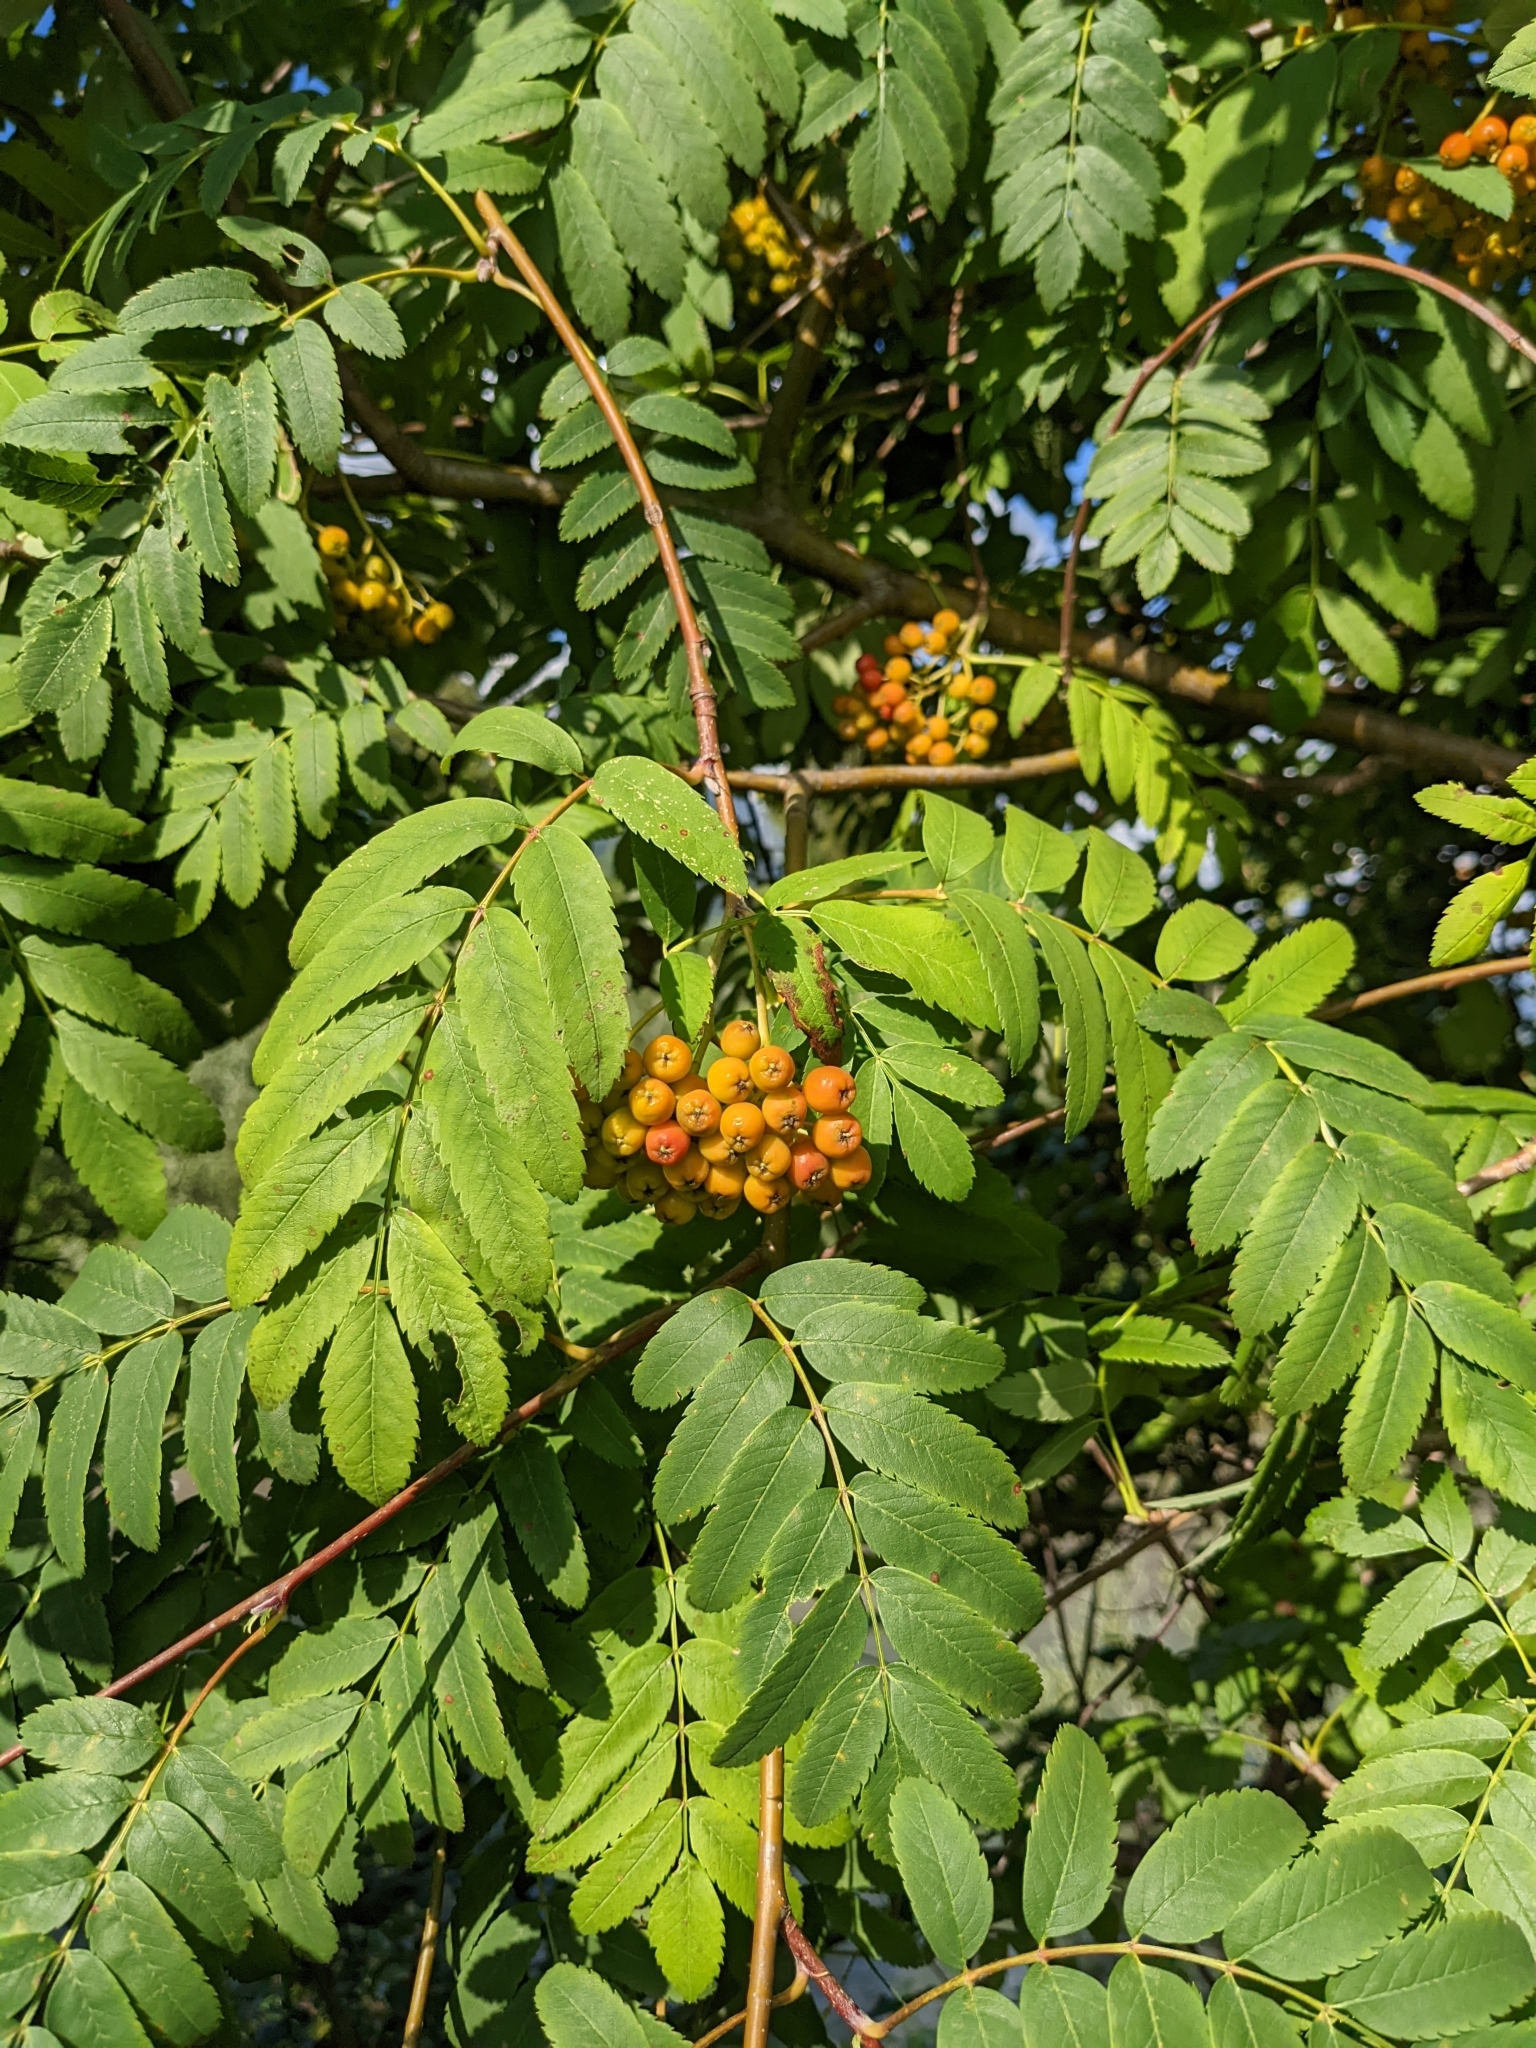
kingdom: Plantae
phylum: Tracheophyta
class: Magnoliopsida
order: Rosales
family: Rosaceae
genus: Sorbus
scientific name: Sorbus aucuparia
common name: Rowan
